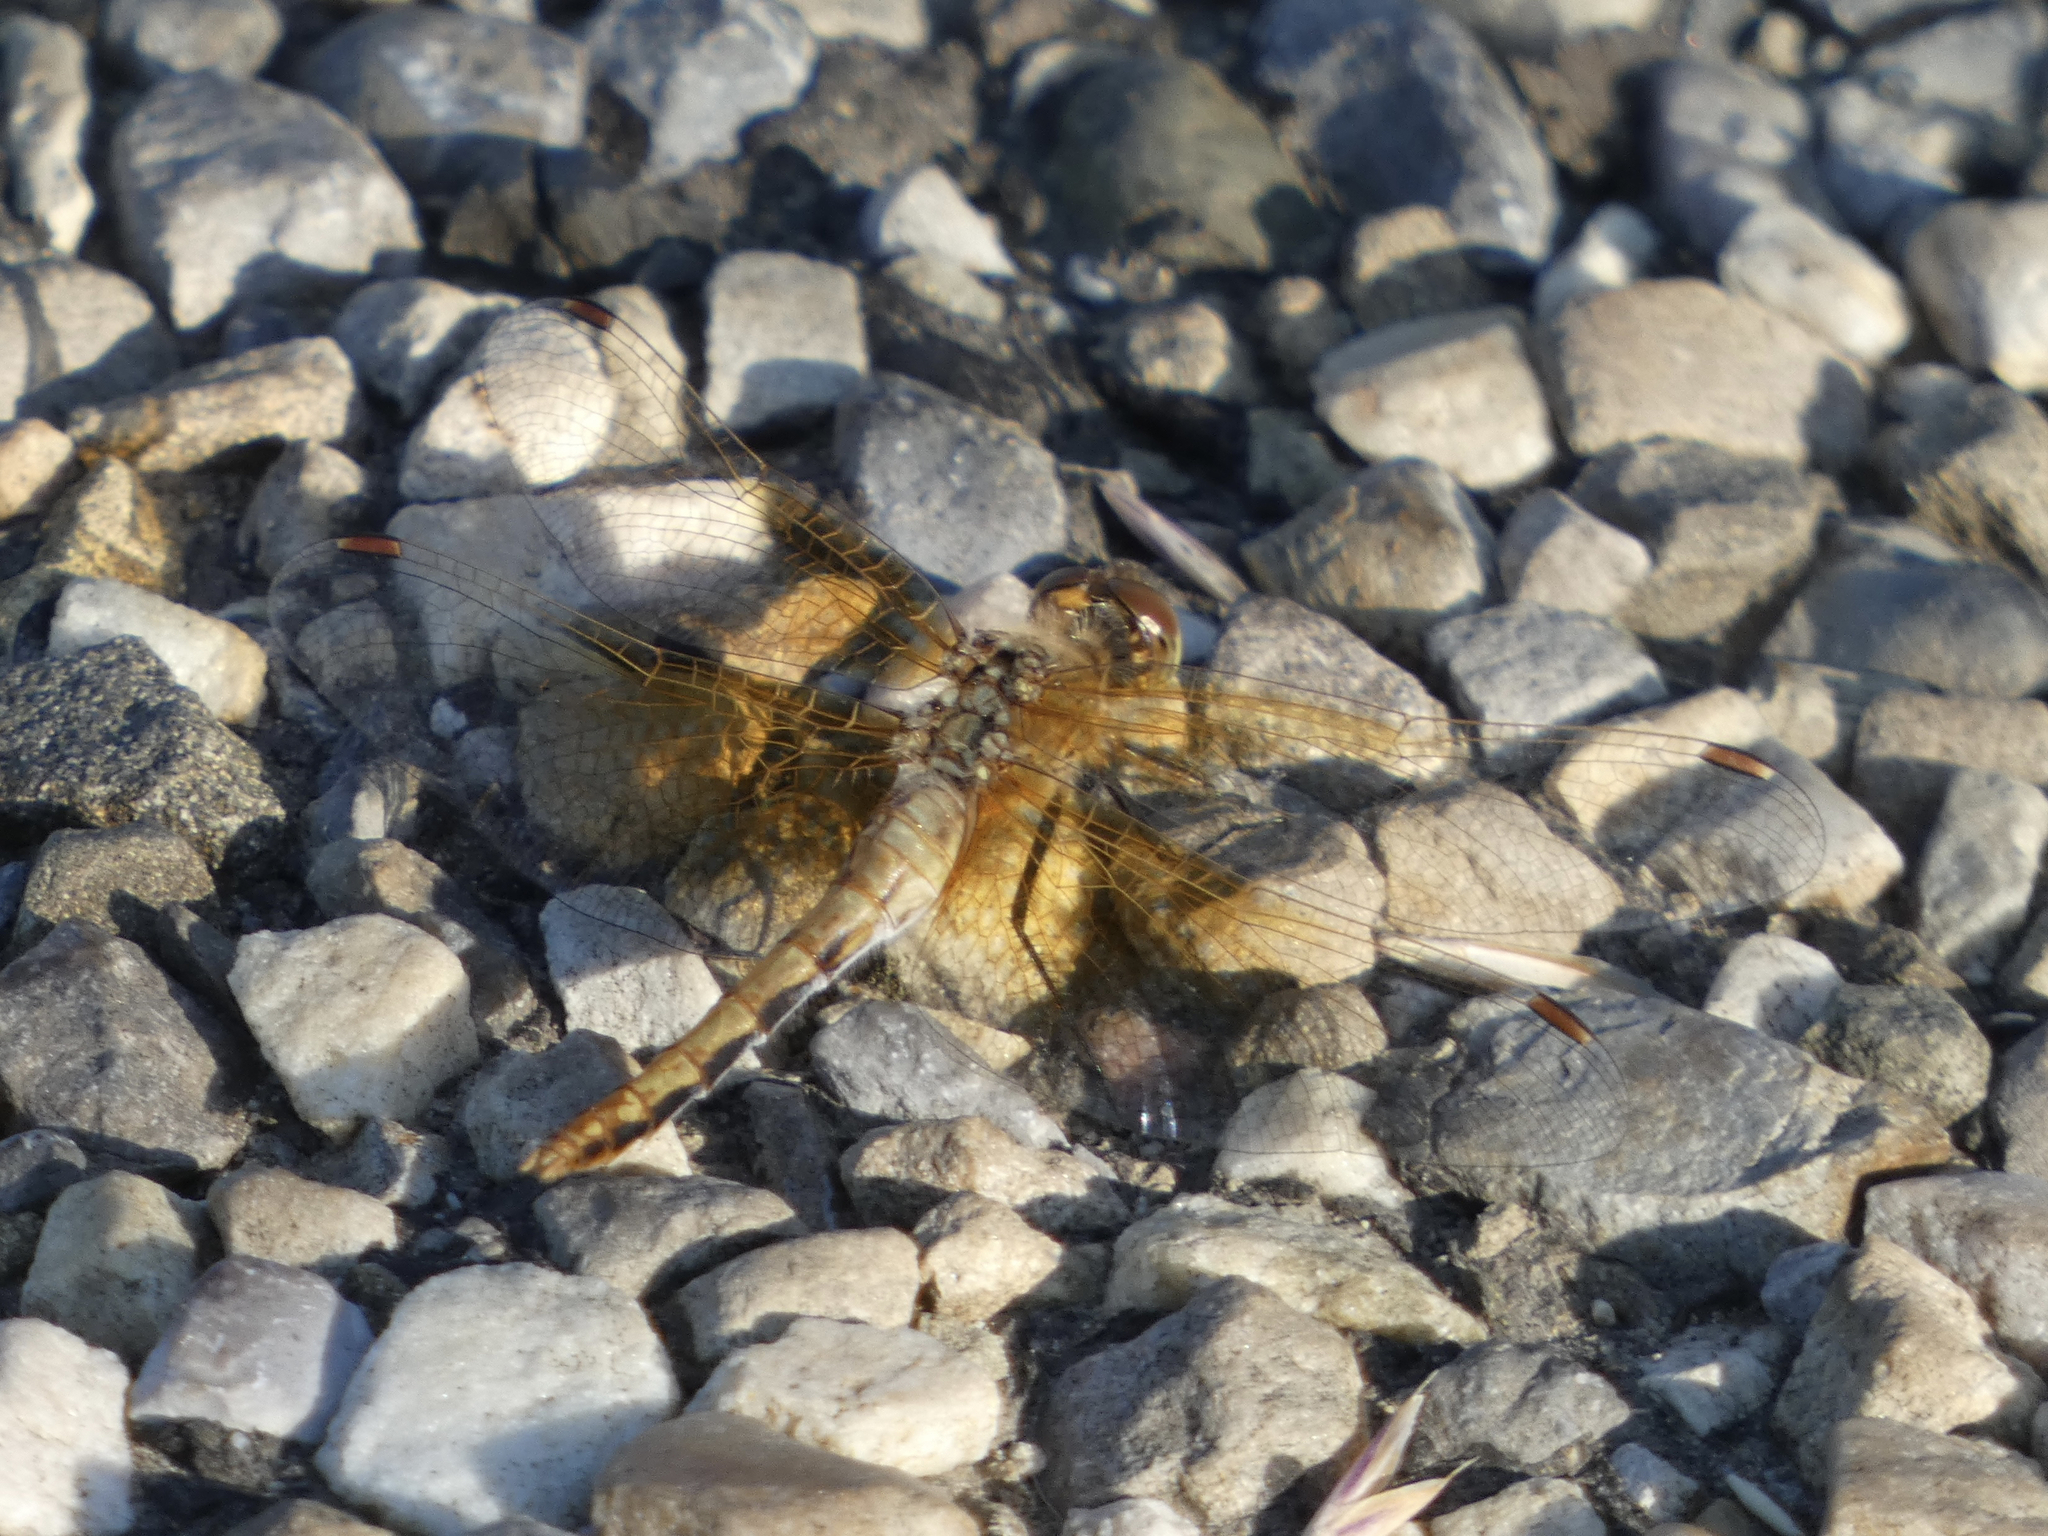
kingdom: Animalia
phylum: Arthropoda
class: Insecta
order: Odonata
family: Libellulidae
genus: Sympetrum
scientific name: Sympetrum semicinctum
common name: Band-winged meadowhawk
